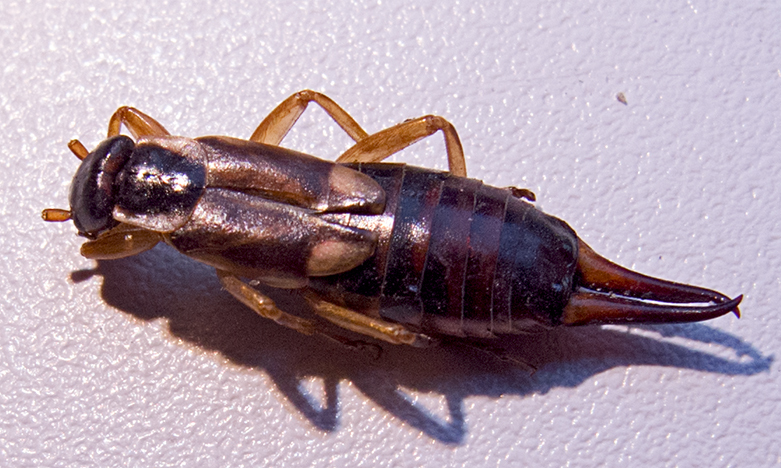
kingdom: Animalia
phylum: Arthropoda
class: Insecta
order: Dermaptera
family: Forficulidae
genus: Forficula
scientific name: Forficula
